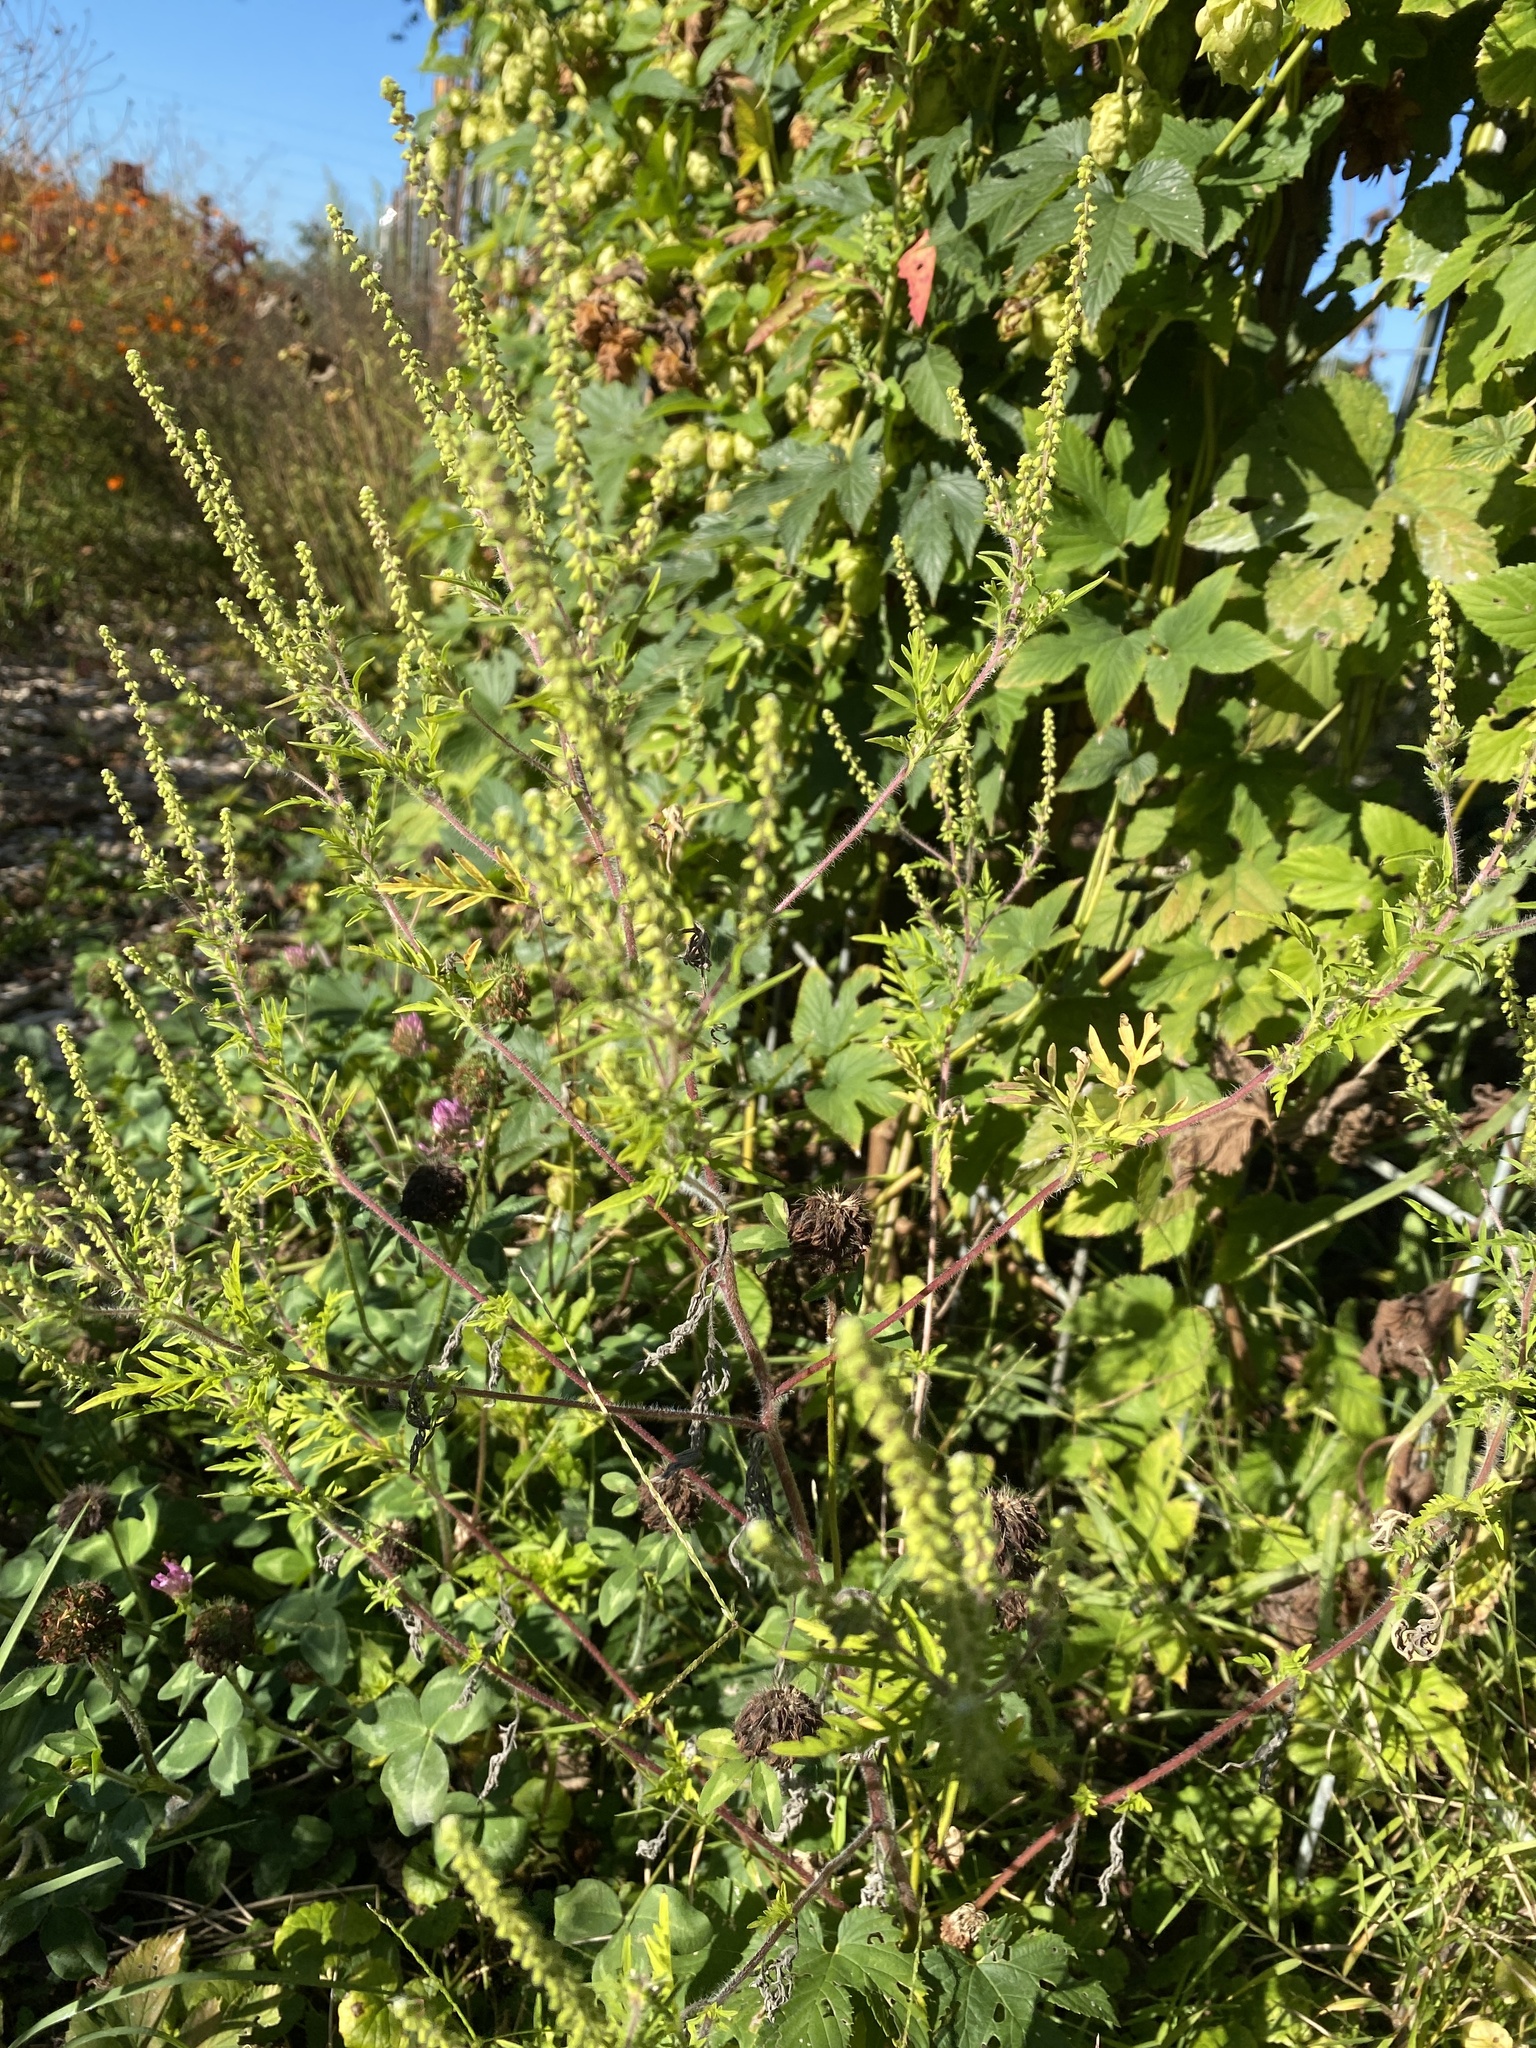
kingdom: Plantae
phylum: Tracheophyta
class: Magnoliopsida
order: Asterales
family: Asteraceae
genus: Ambrosia
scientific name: Ambrosia artemisiifolia
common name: Annual ragweed
